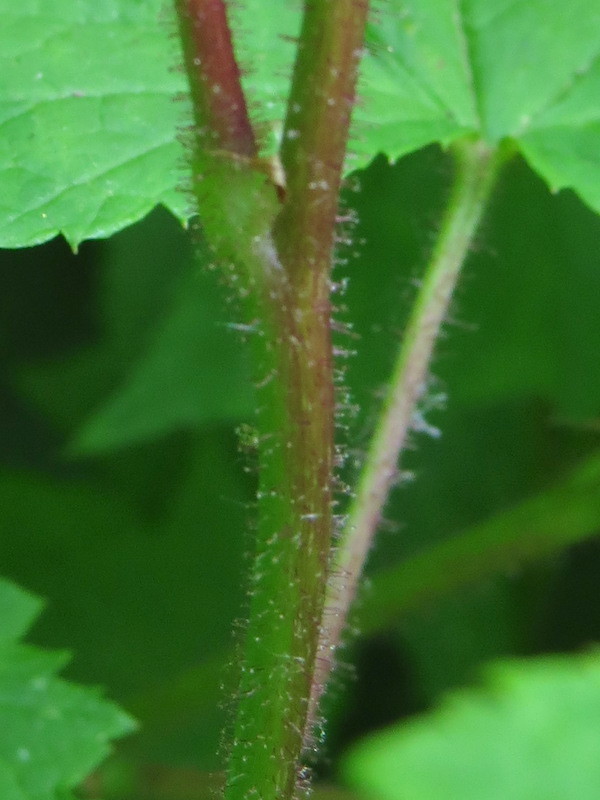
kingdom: Plantae
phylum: Tracheophyta
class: Magnoliopsida
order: Rosales
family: Rosaceae
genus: Rubus
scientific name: Rubus odoratus
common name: Purple-flowered raspberry
